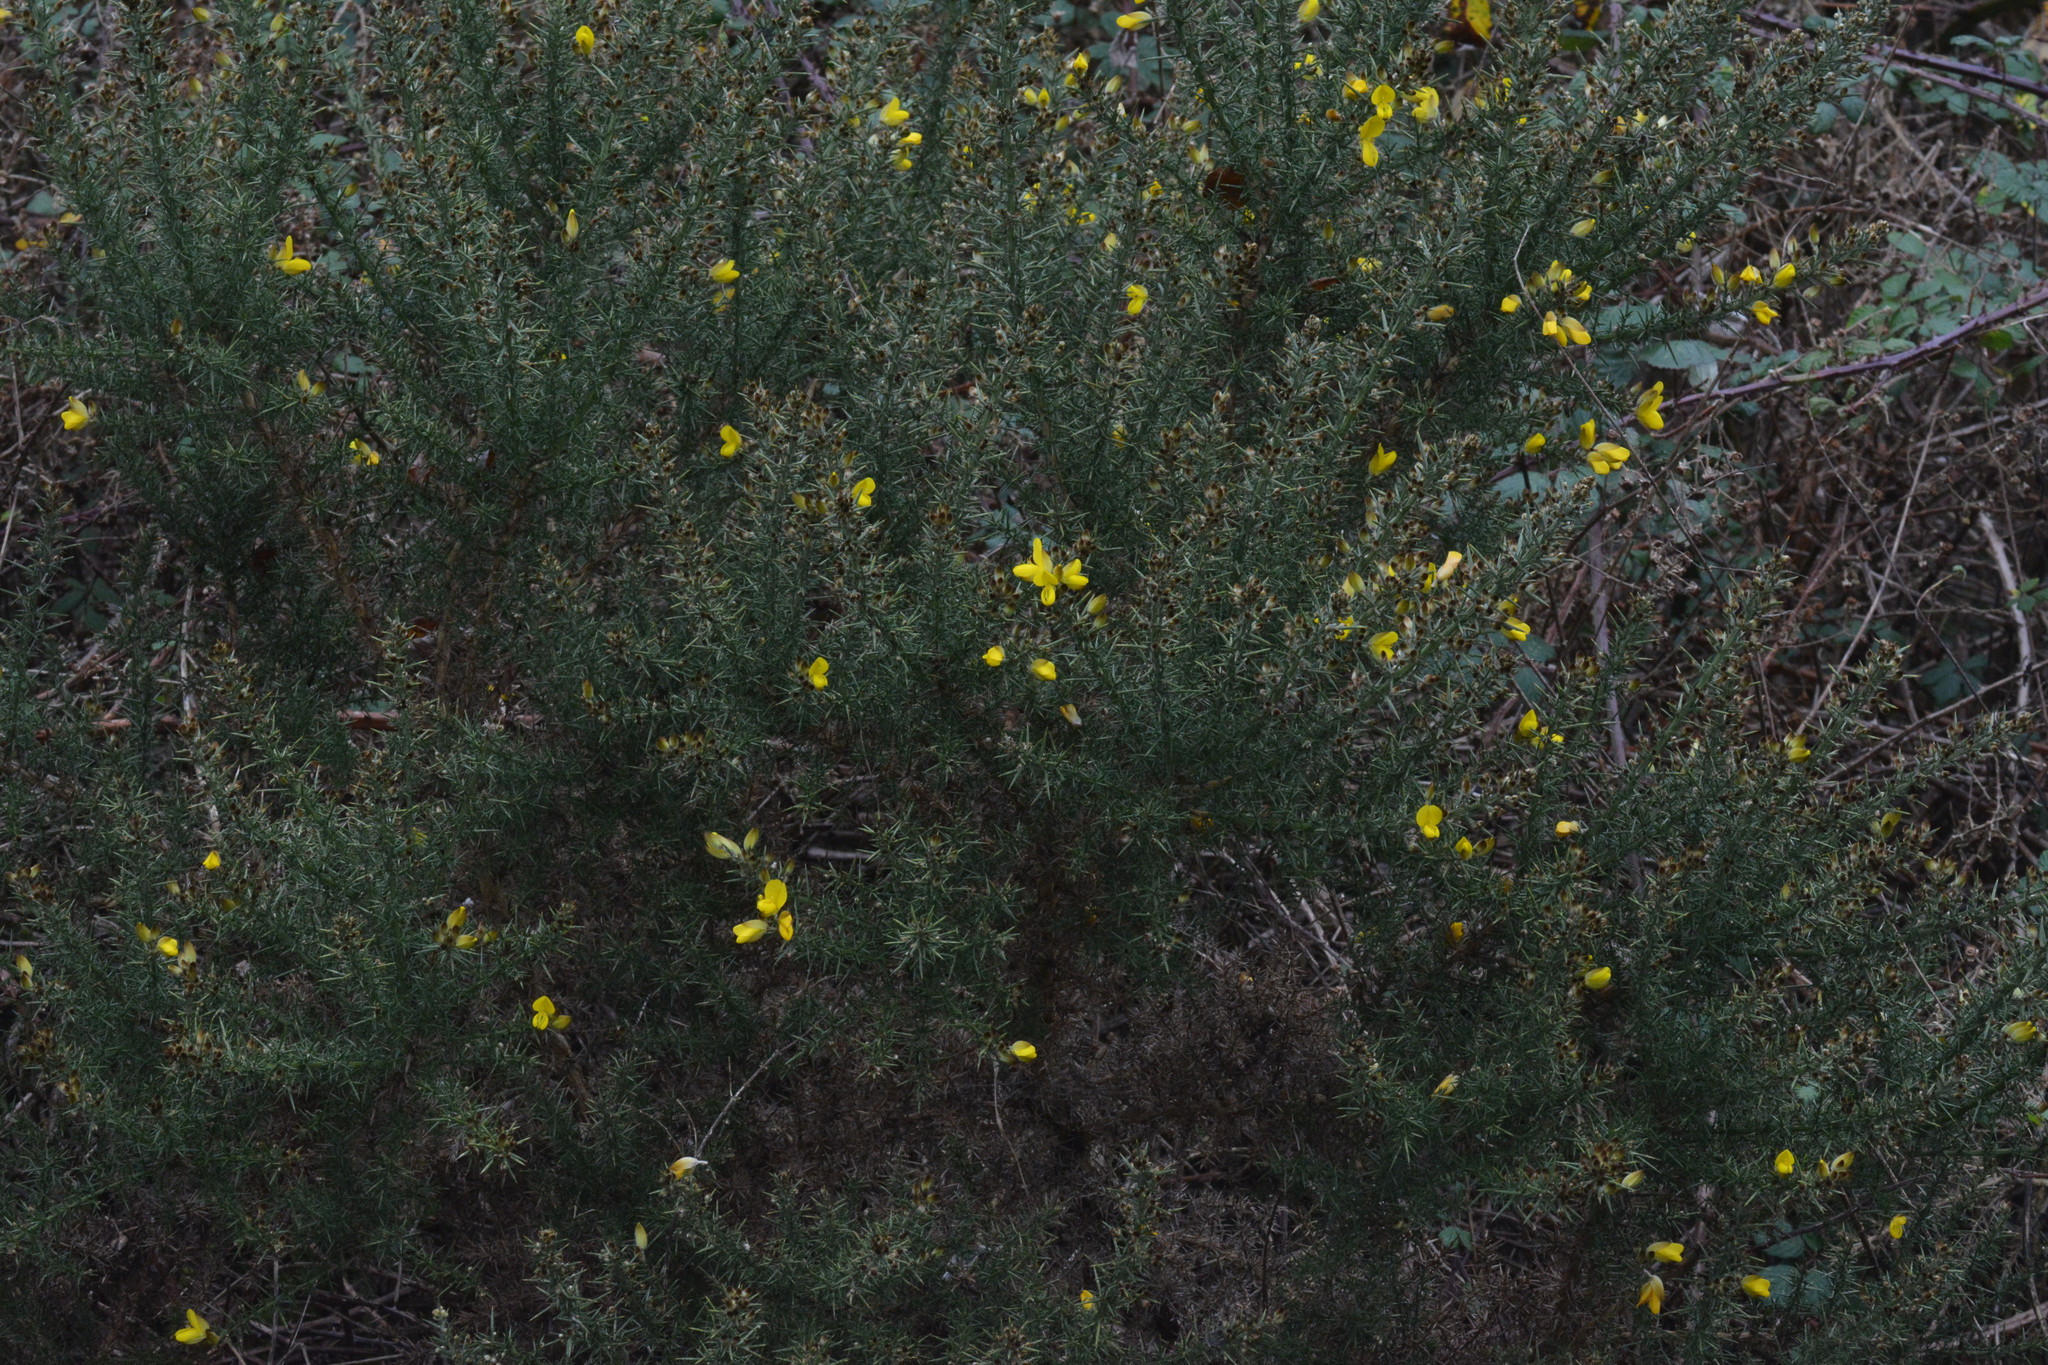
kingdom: Plantae
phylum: Tracheophyta
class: Magnoliopsida
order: Fabales
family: Fabaceae
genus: Ulex
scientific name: Ulex europaeus
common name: Common gorse
